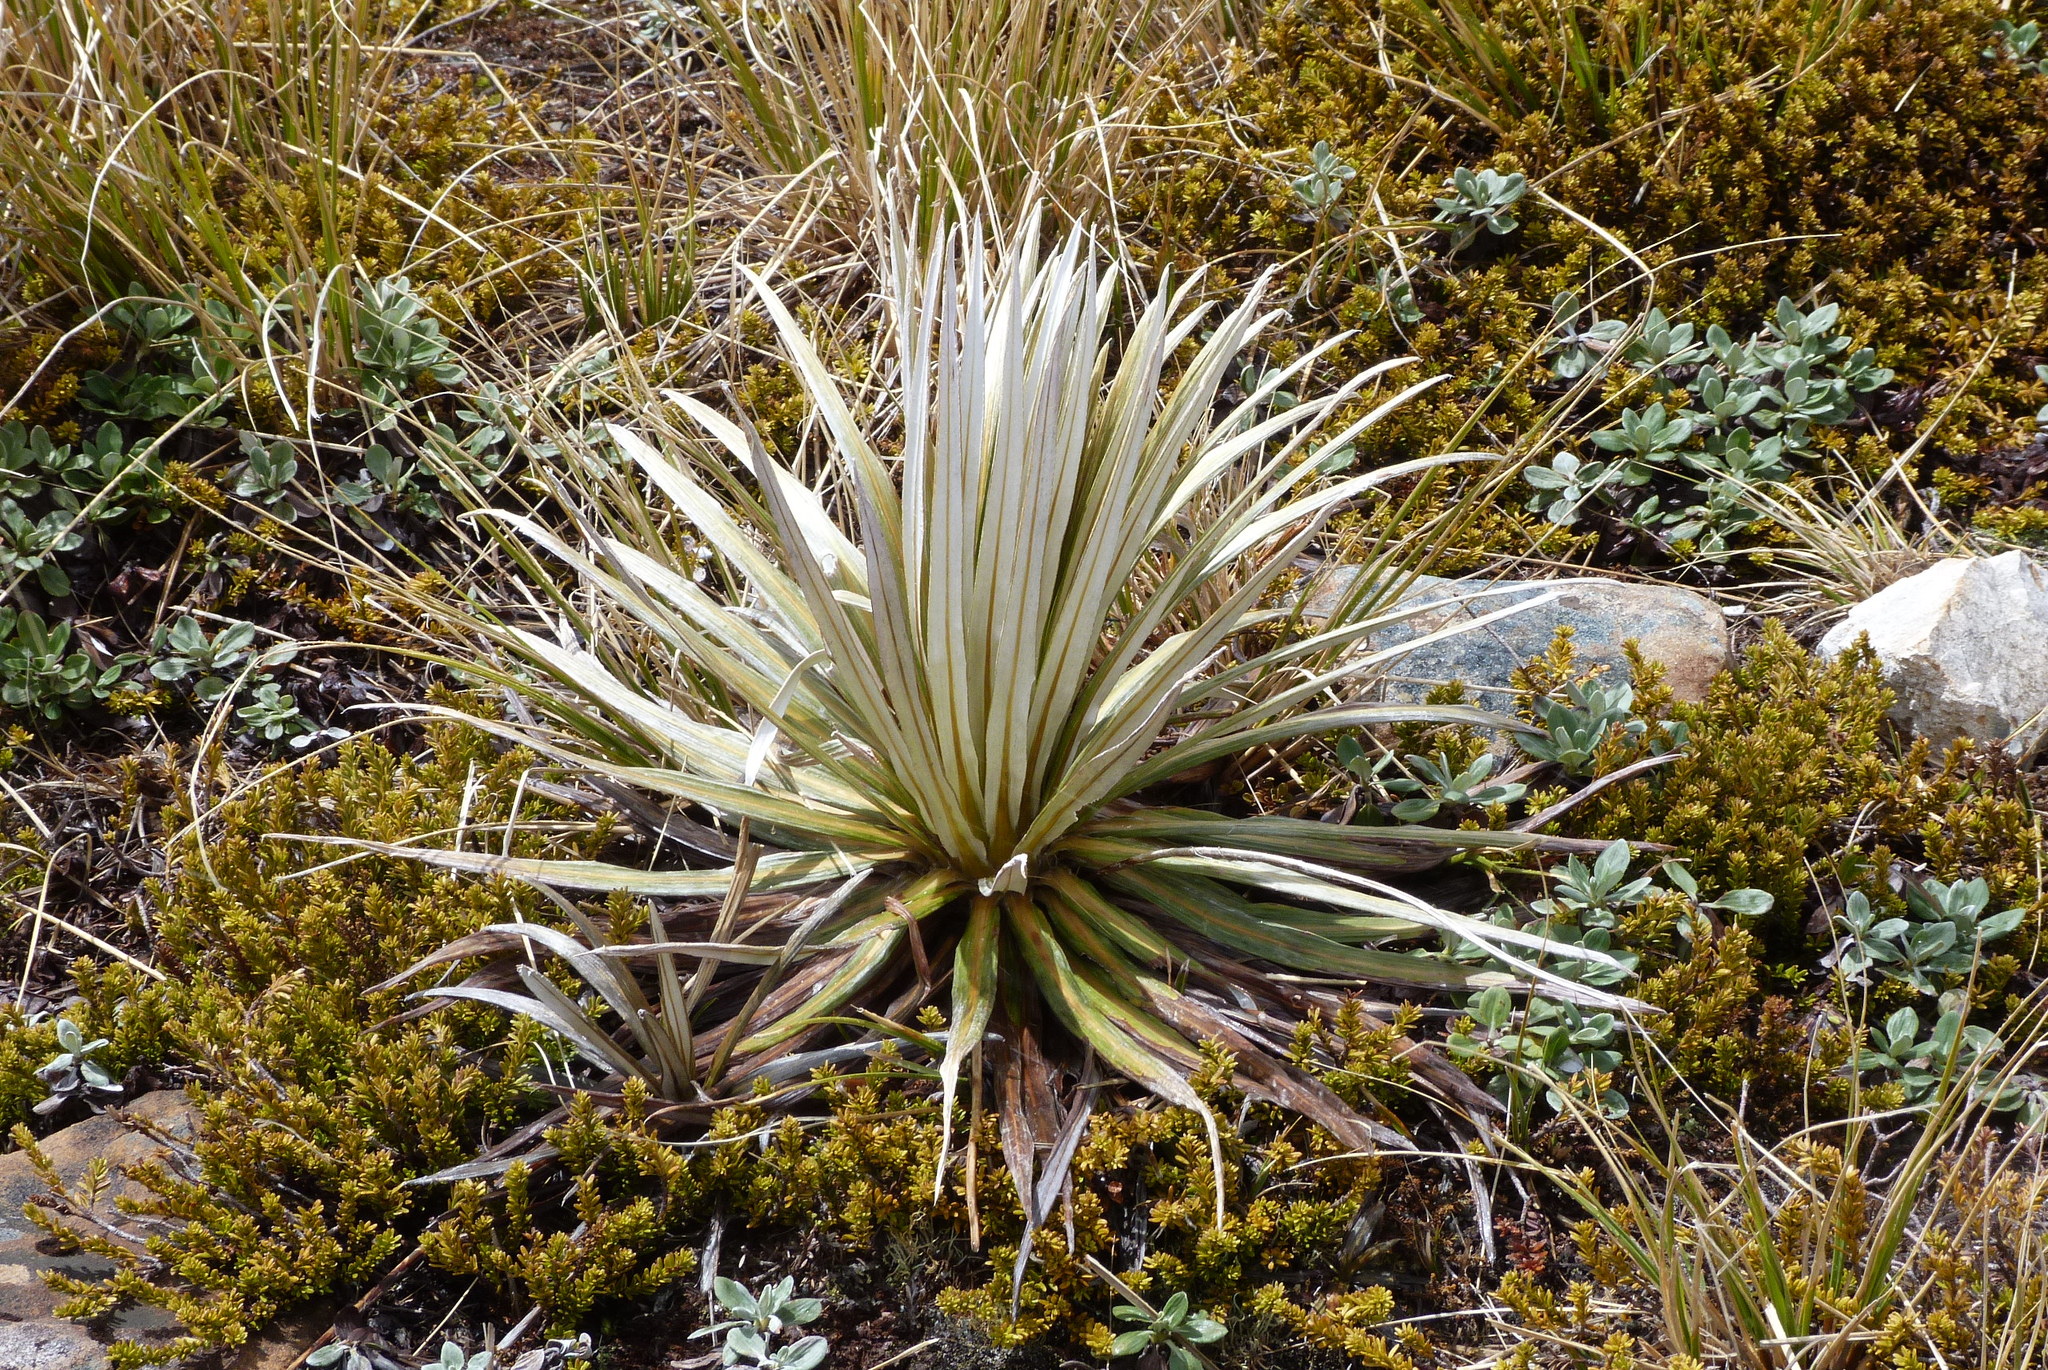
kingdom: Plantae
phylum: Tracheophyta
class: Magnoliopsida
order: Asterales
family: Asteraceae
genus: Celmisia
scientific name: Celmisia armstrongii
